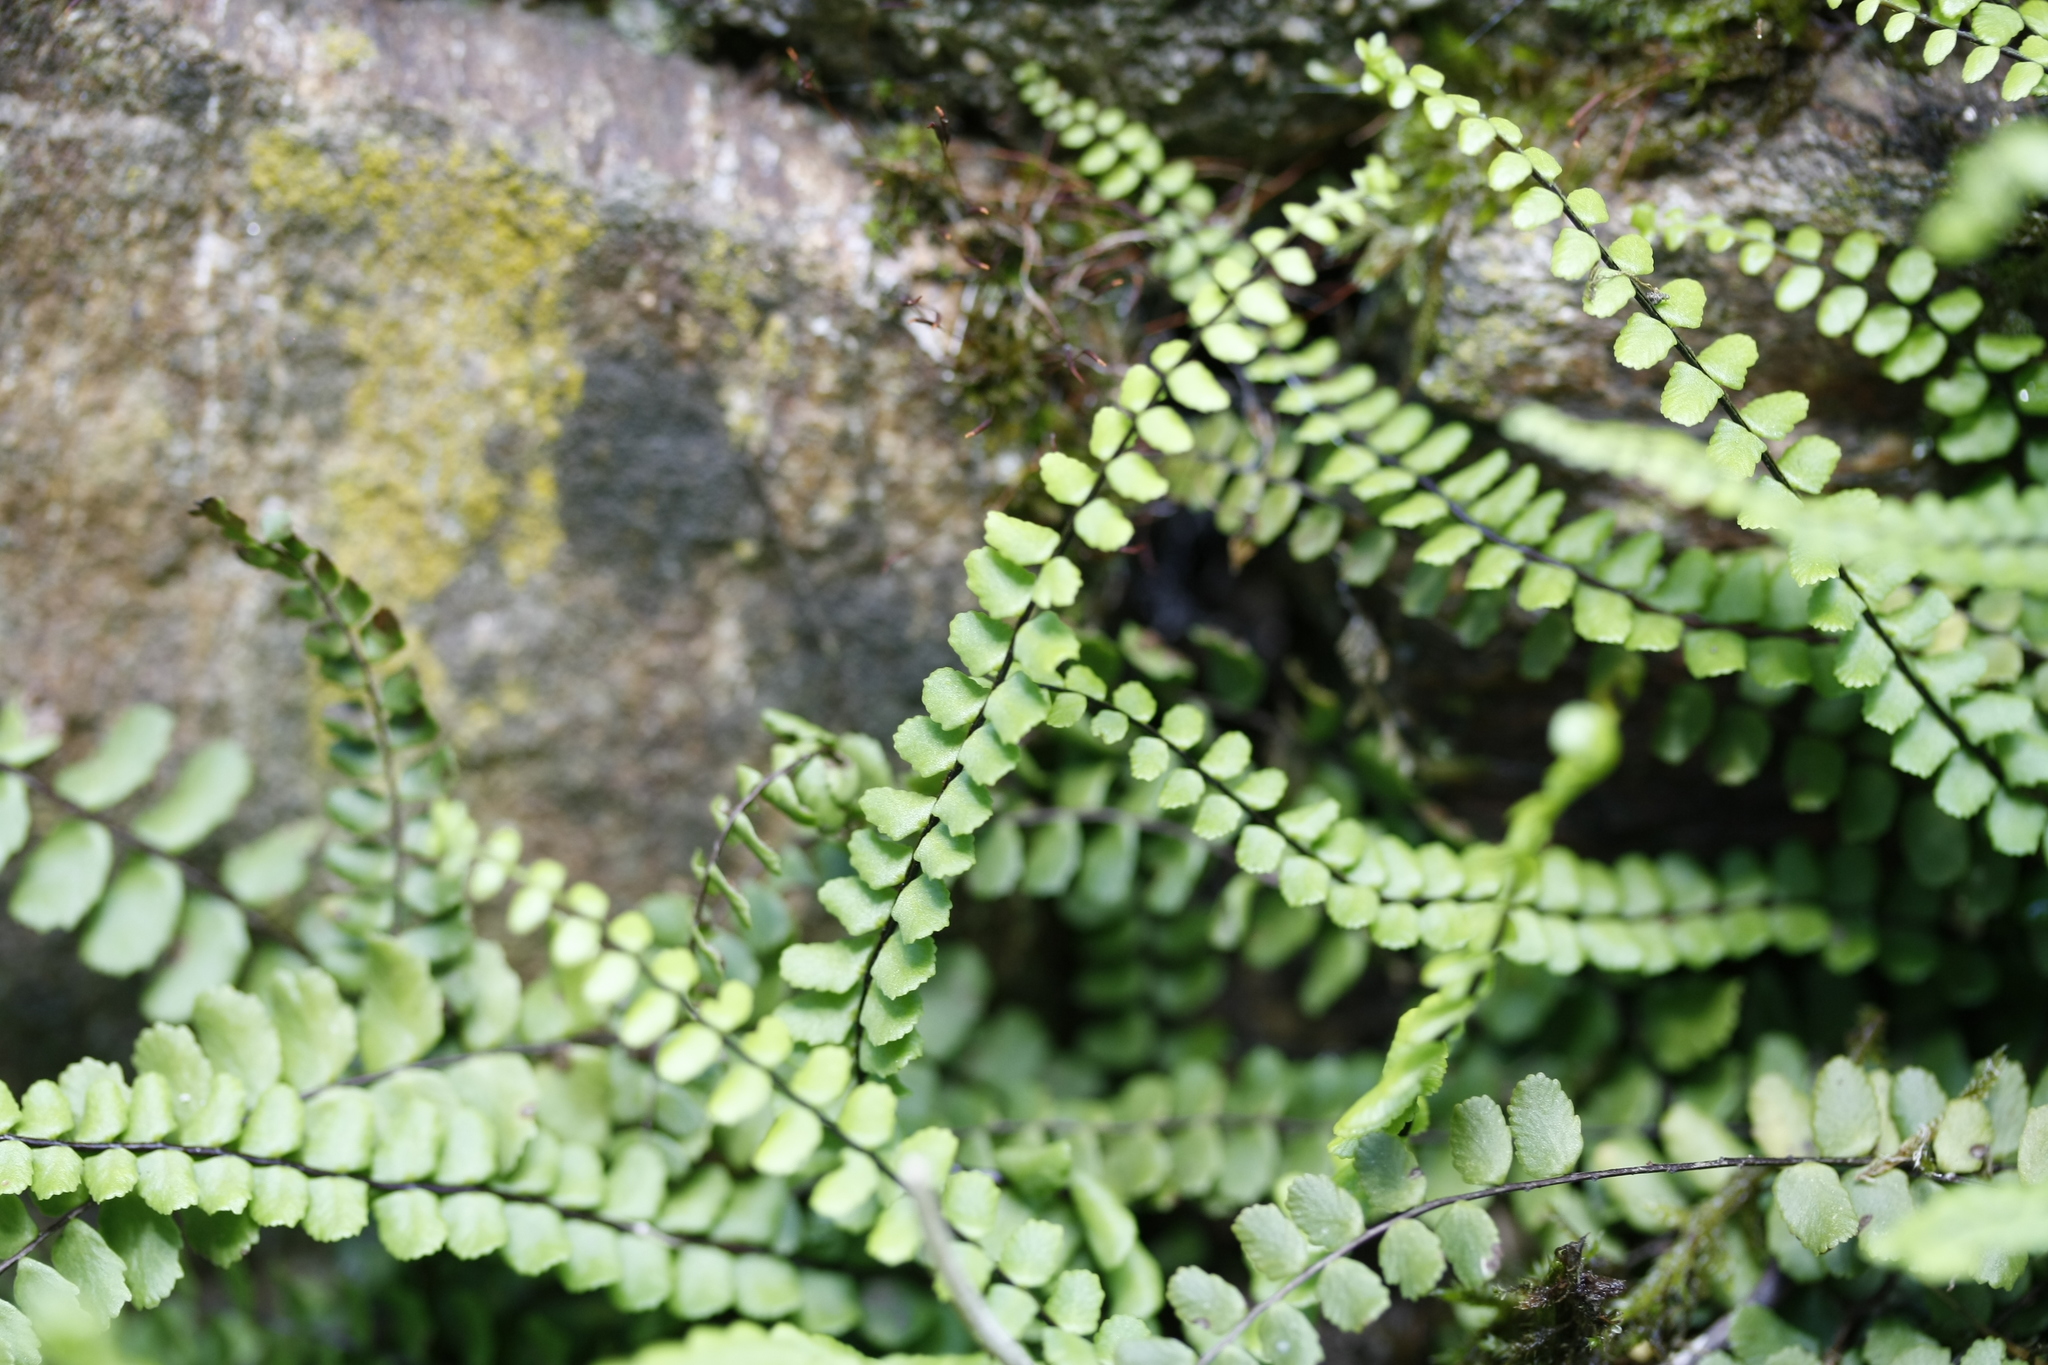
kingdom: Plantae
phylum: Tracheophyta
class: Polypodiopsida
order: Polypodiales
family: Aspleniaceae
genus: Asplenium
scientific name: Asplenium trichomanes
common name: Maidenhair spleenwort
